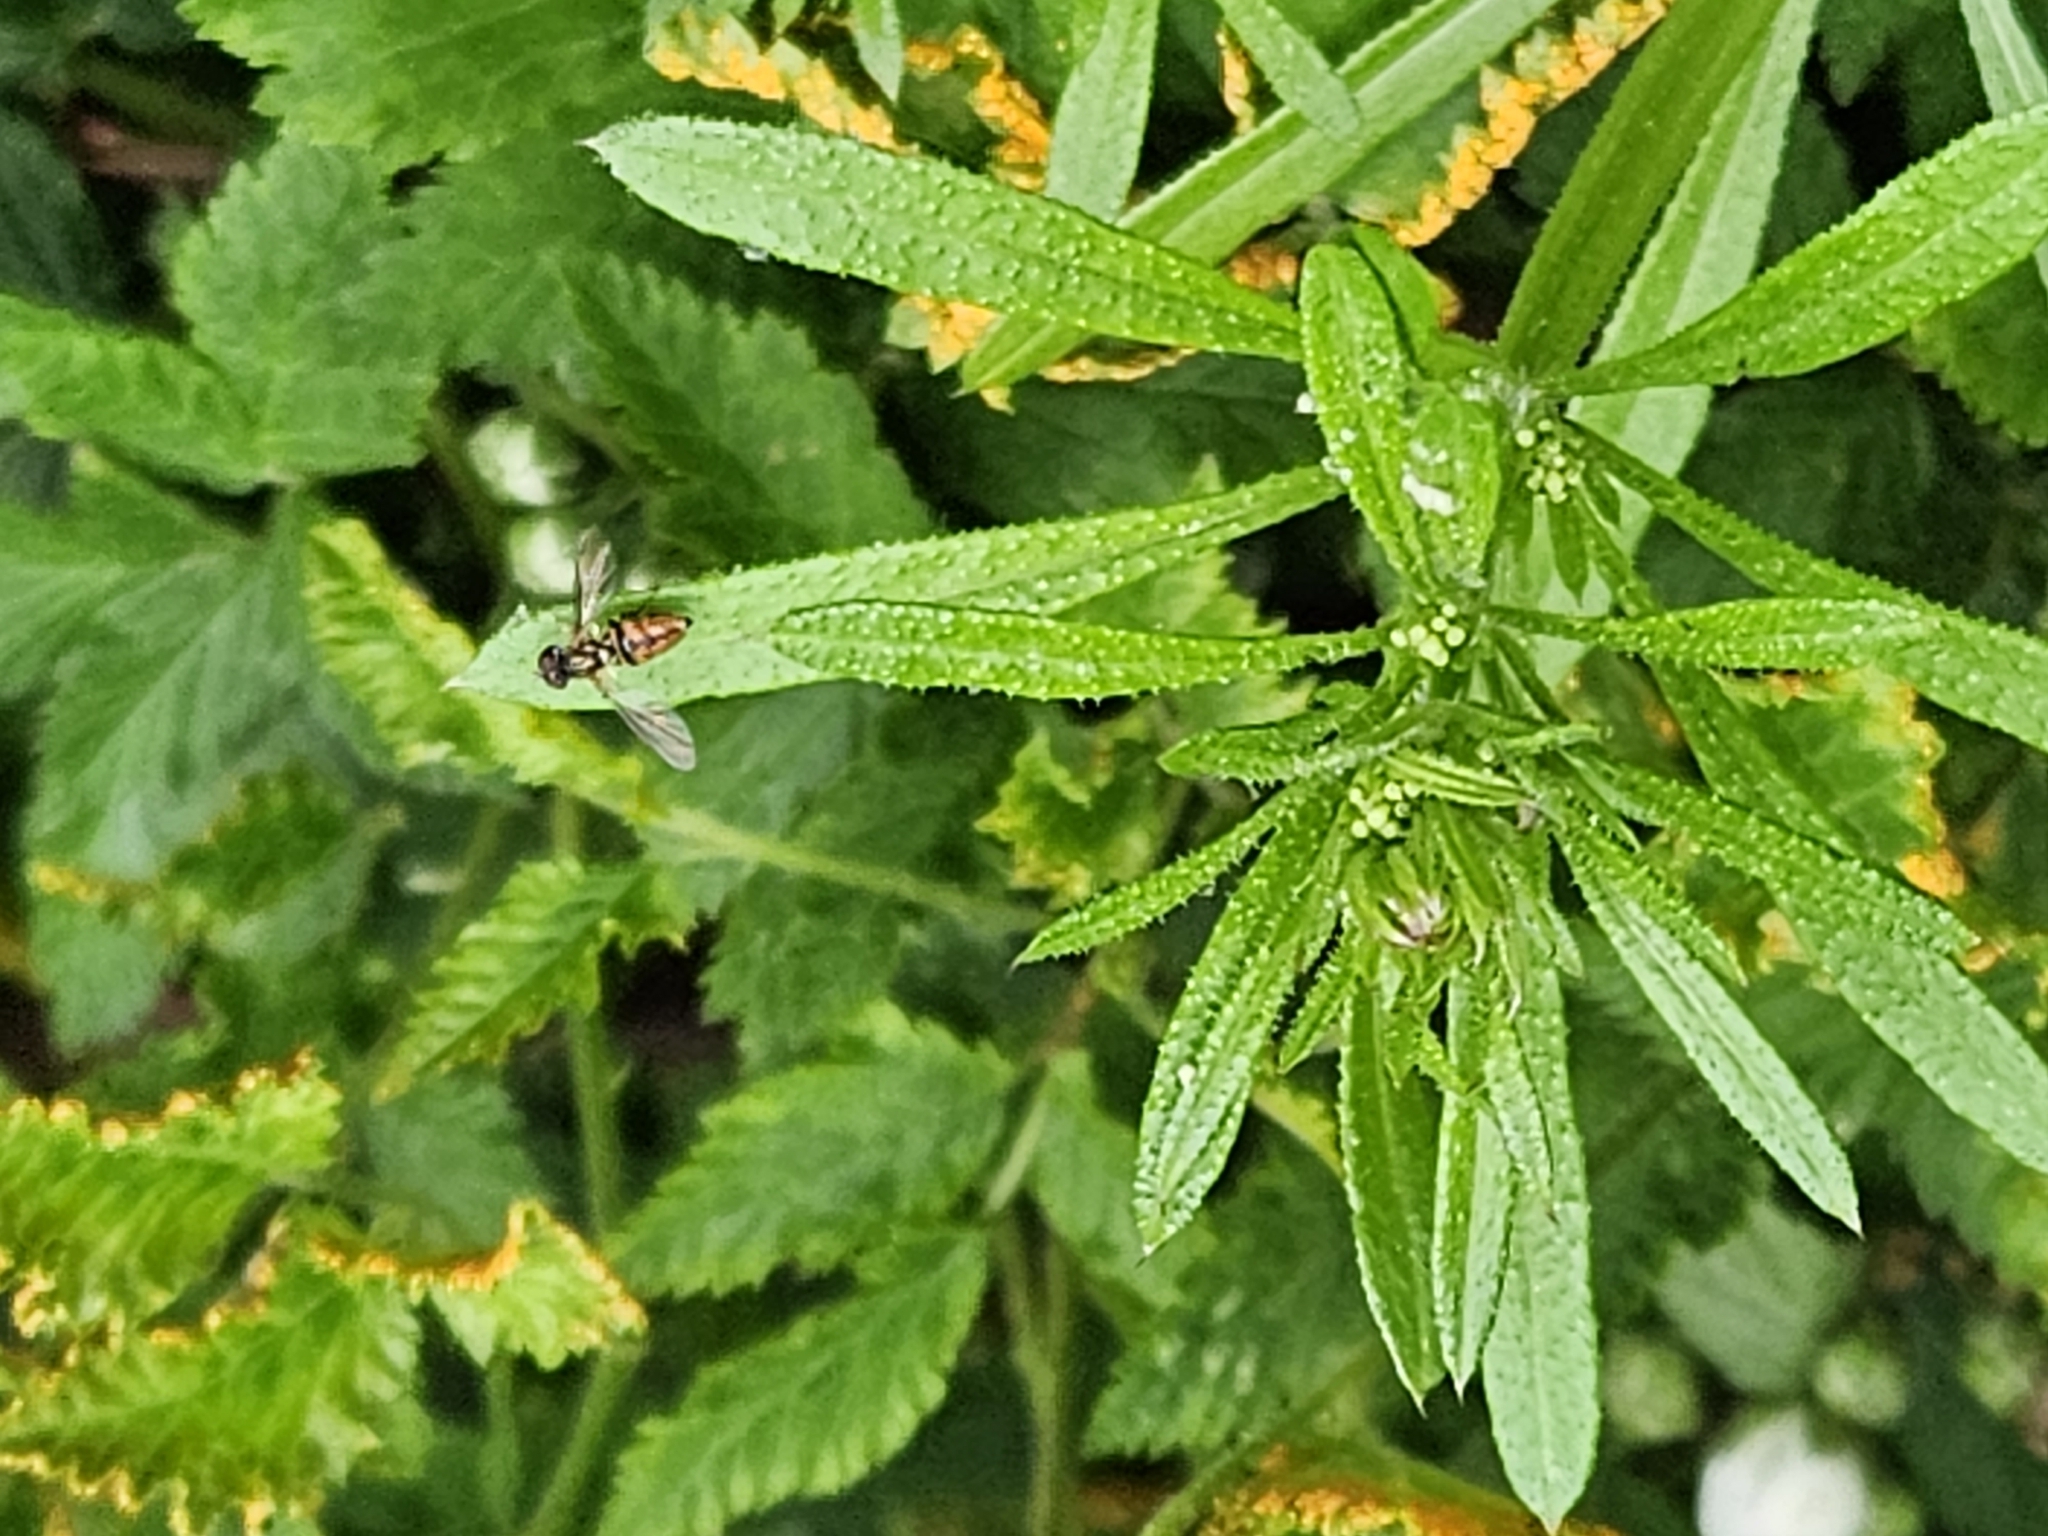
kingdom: Animalia
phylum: Arthropoda
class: Insecta
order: Diptera
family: Syrphidae
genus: Toxomerus
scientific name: Toxomerus boscii
